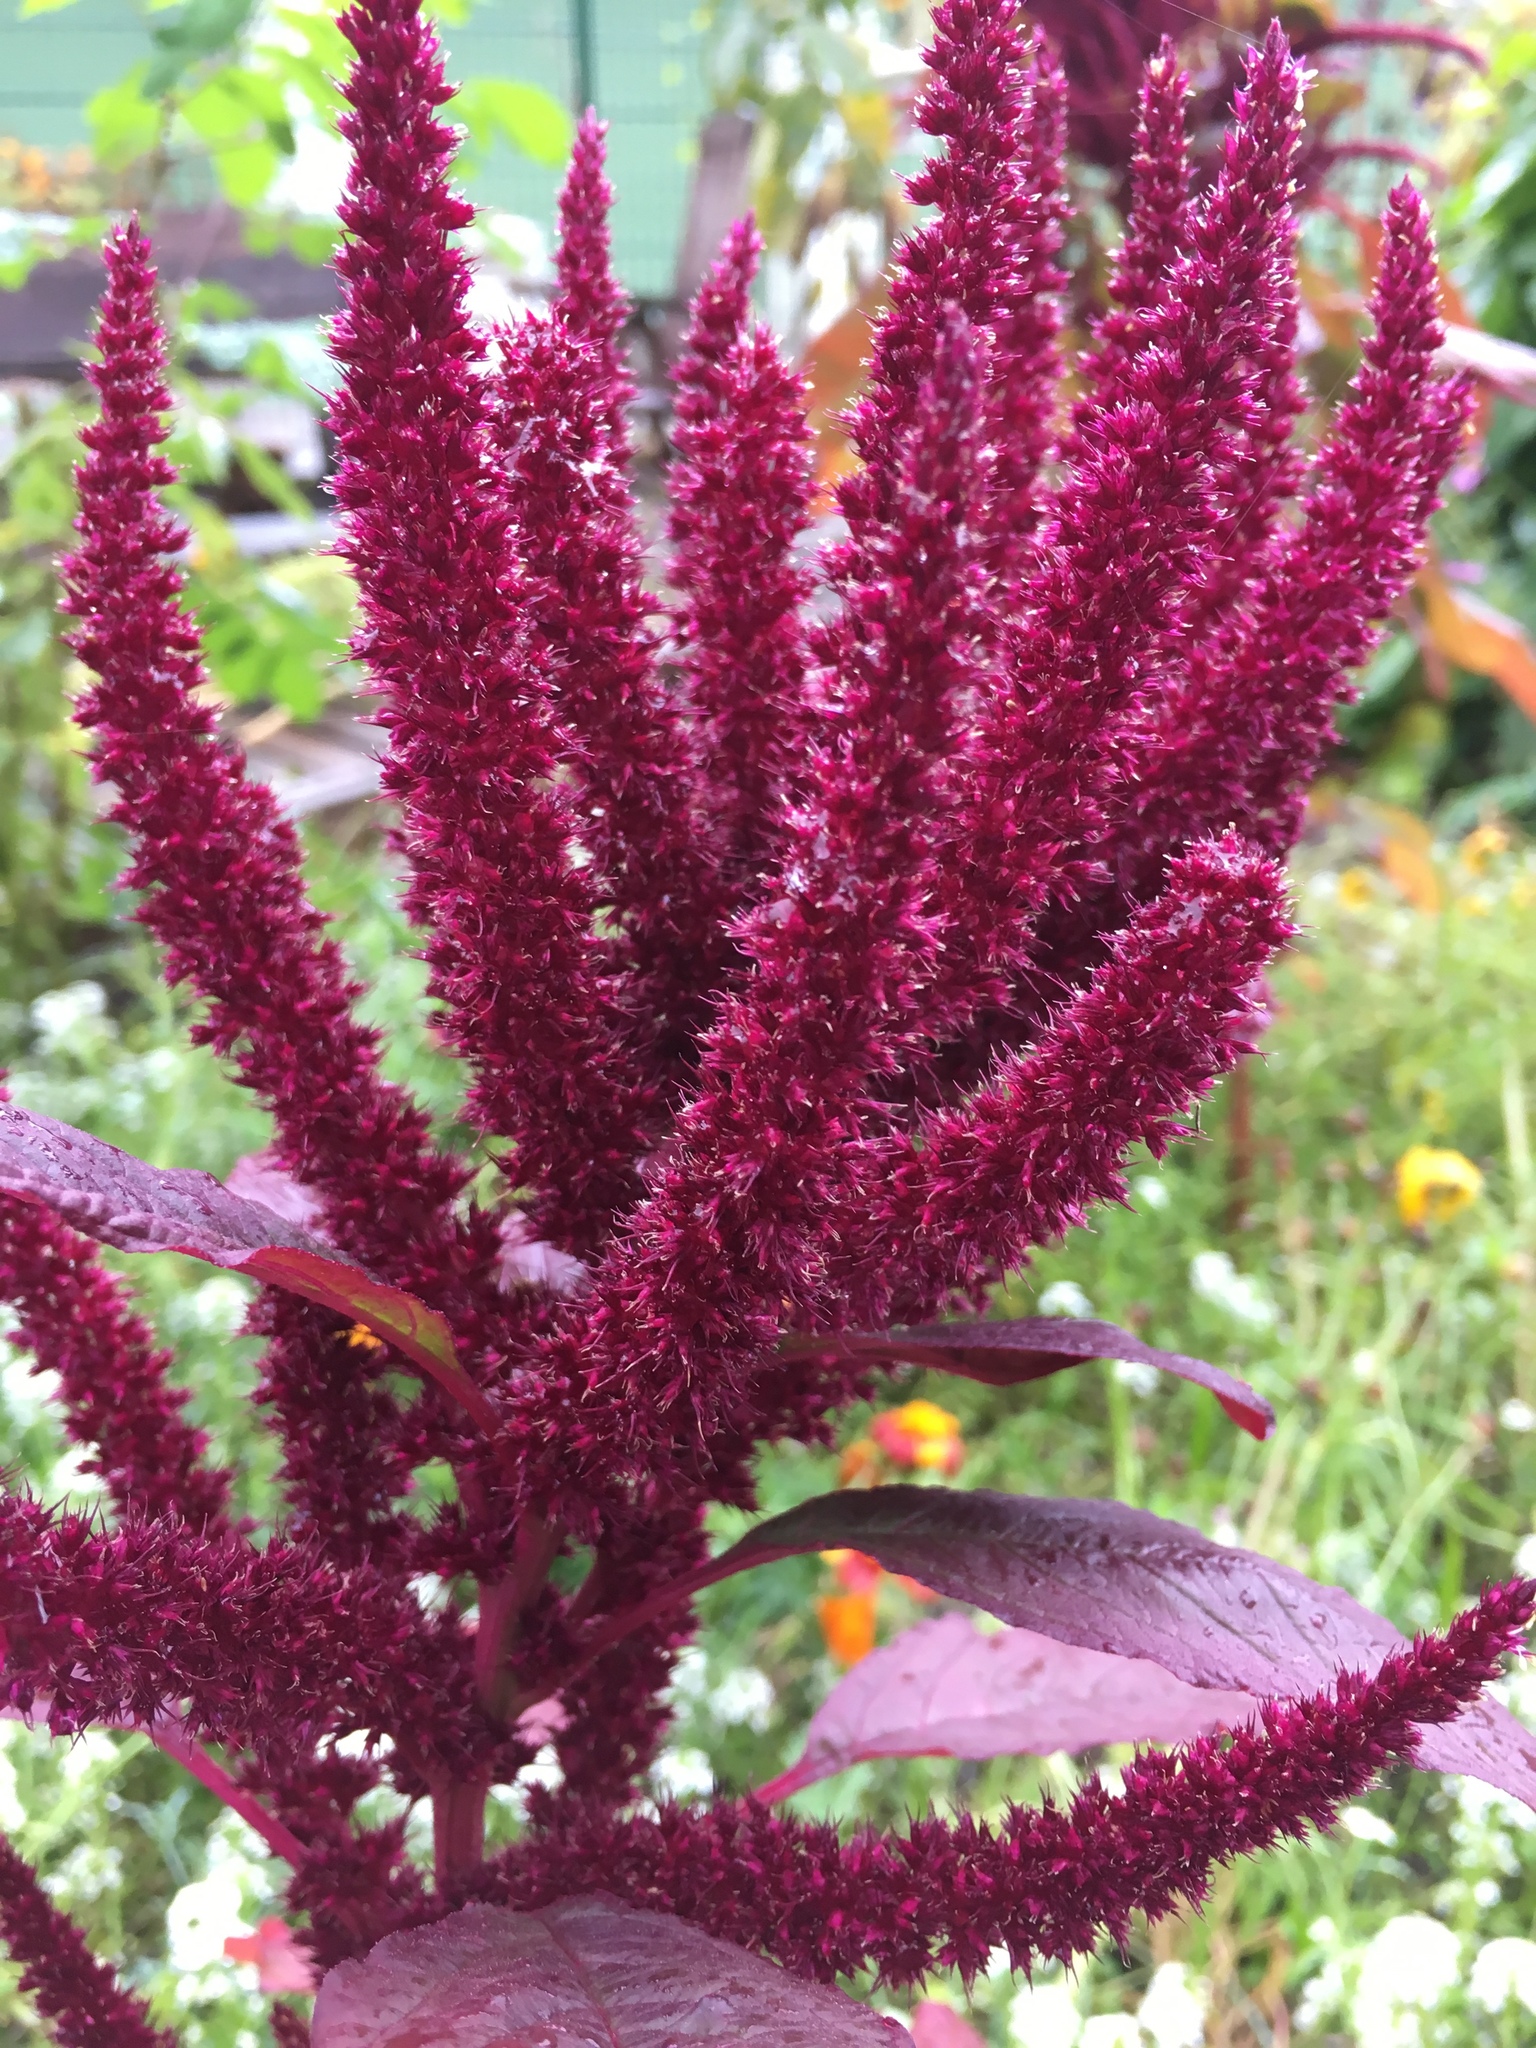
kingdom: Plantae
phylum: Tracheophyta
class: Magnoliopsida
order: Caryophyllales
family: Amaranthaceae
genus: Amaranthus
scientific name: Amaranthus hypochondriacus
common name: Prince's-feather
